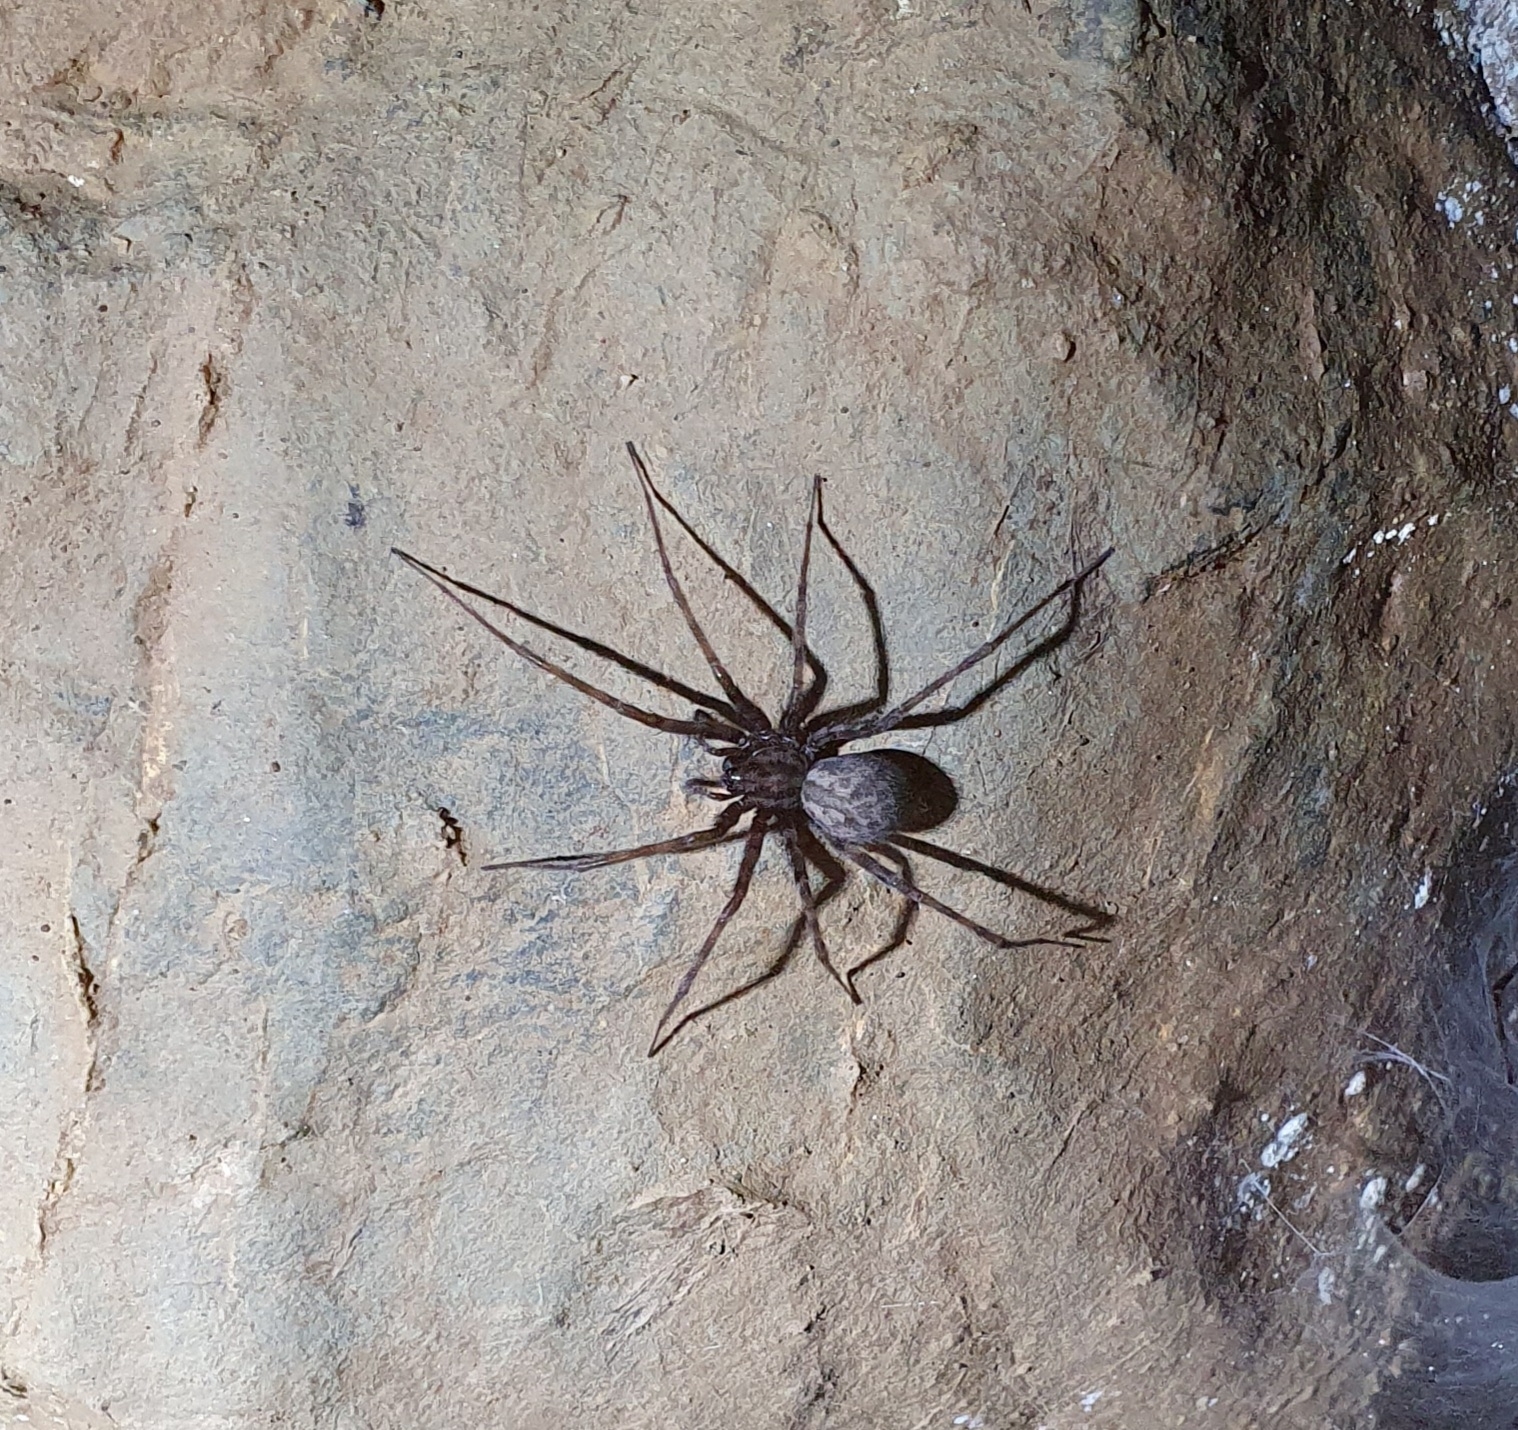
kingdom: Animalia
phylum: Arthropoda
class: Arachnida
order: Araneae
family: Agelenidae
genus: Tegenaria
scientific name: Tegenaria domestica
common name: Barn funnel weaver
